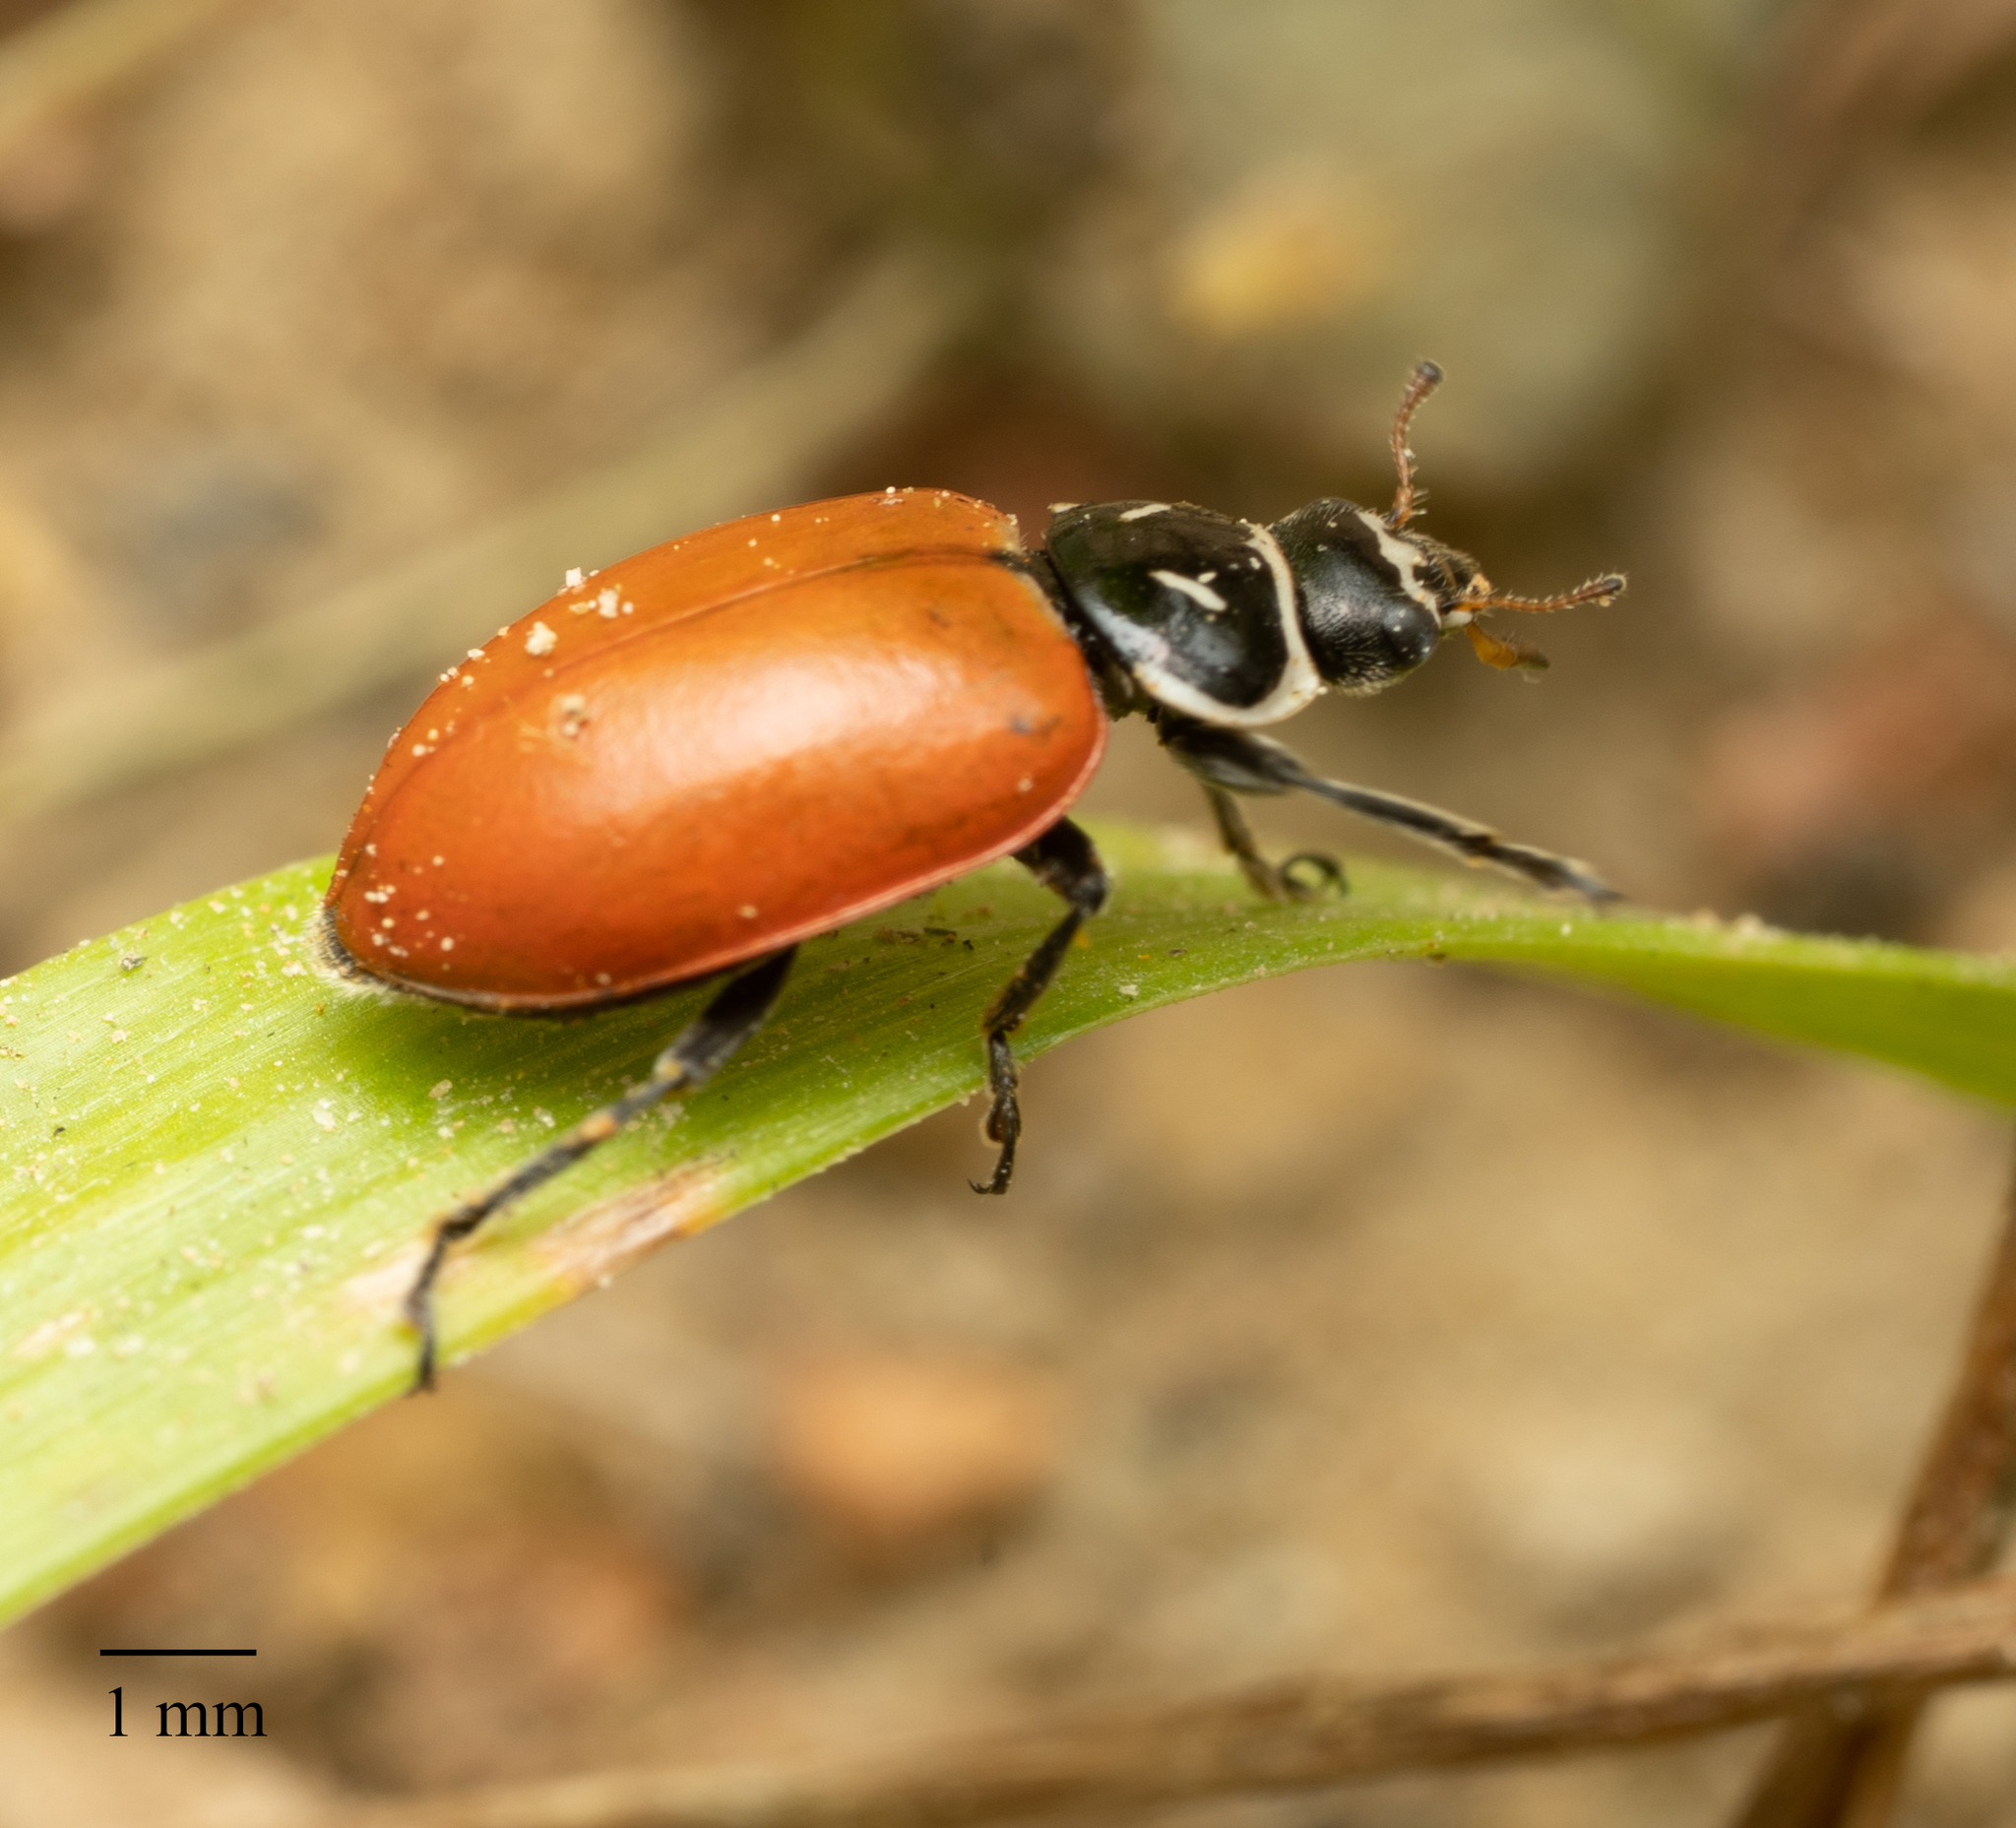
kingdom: Animalia
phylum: Arthropoda
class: Insecta
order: Coleoptera
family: Coccinellidae
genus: Hippodamia
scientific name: Hippodamia convergens
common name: Convergent lady beetle
